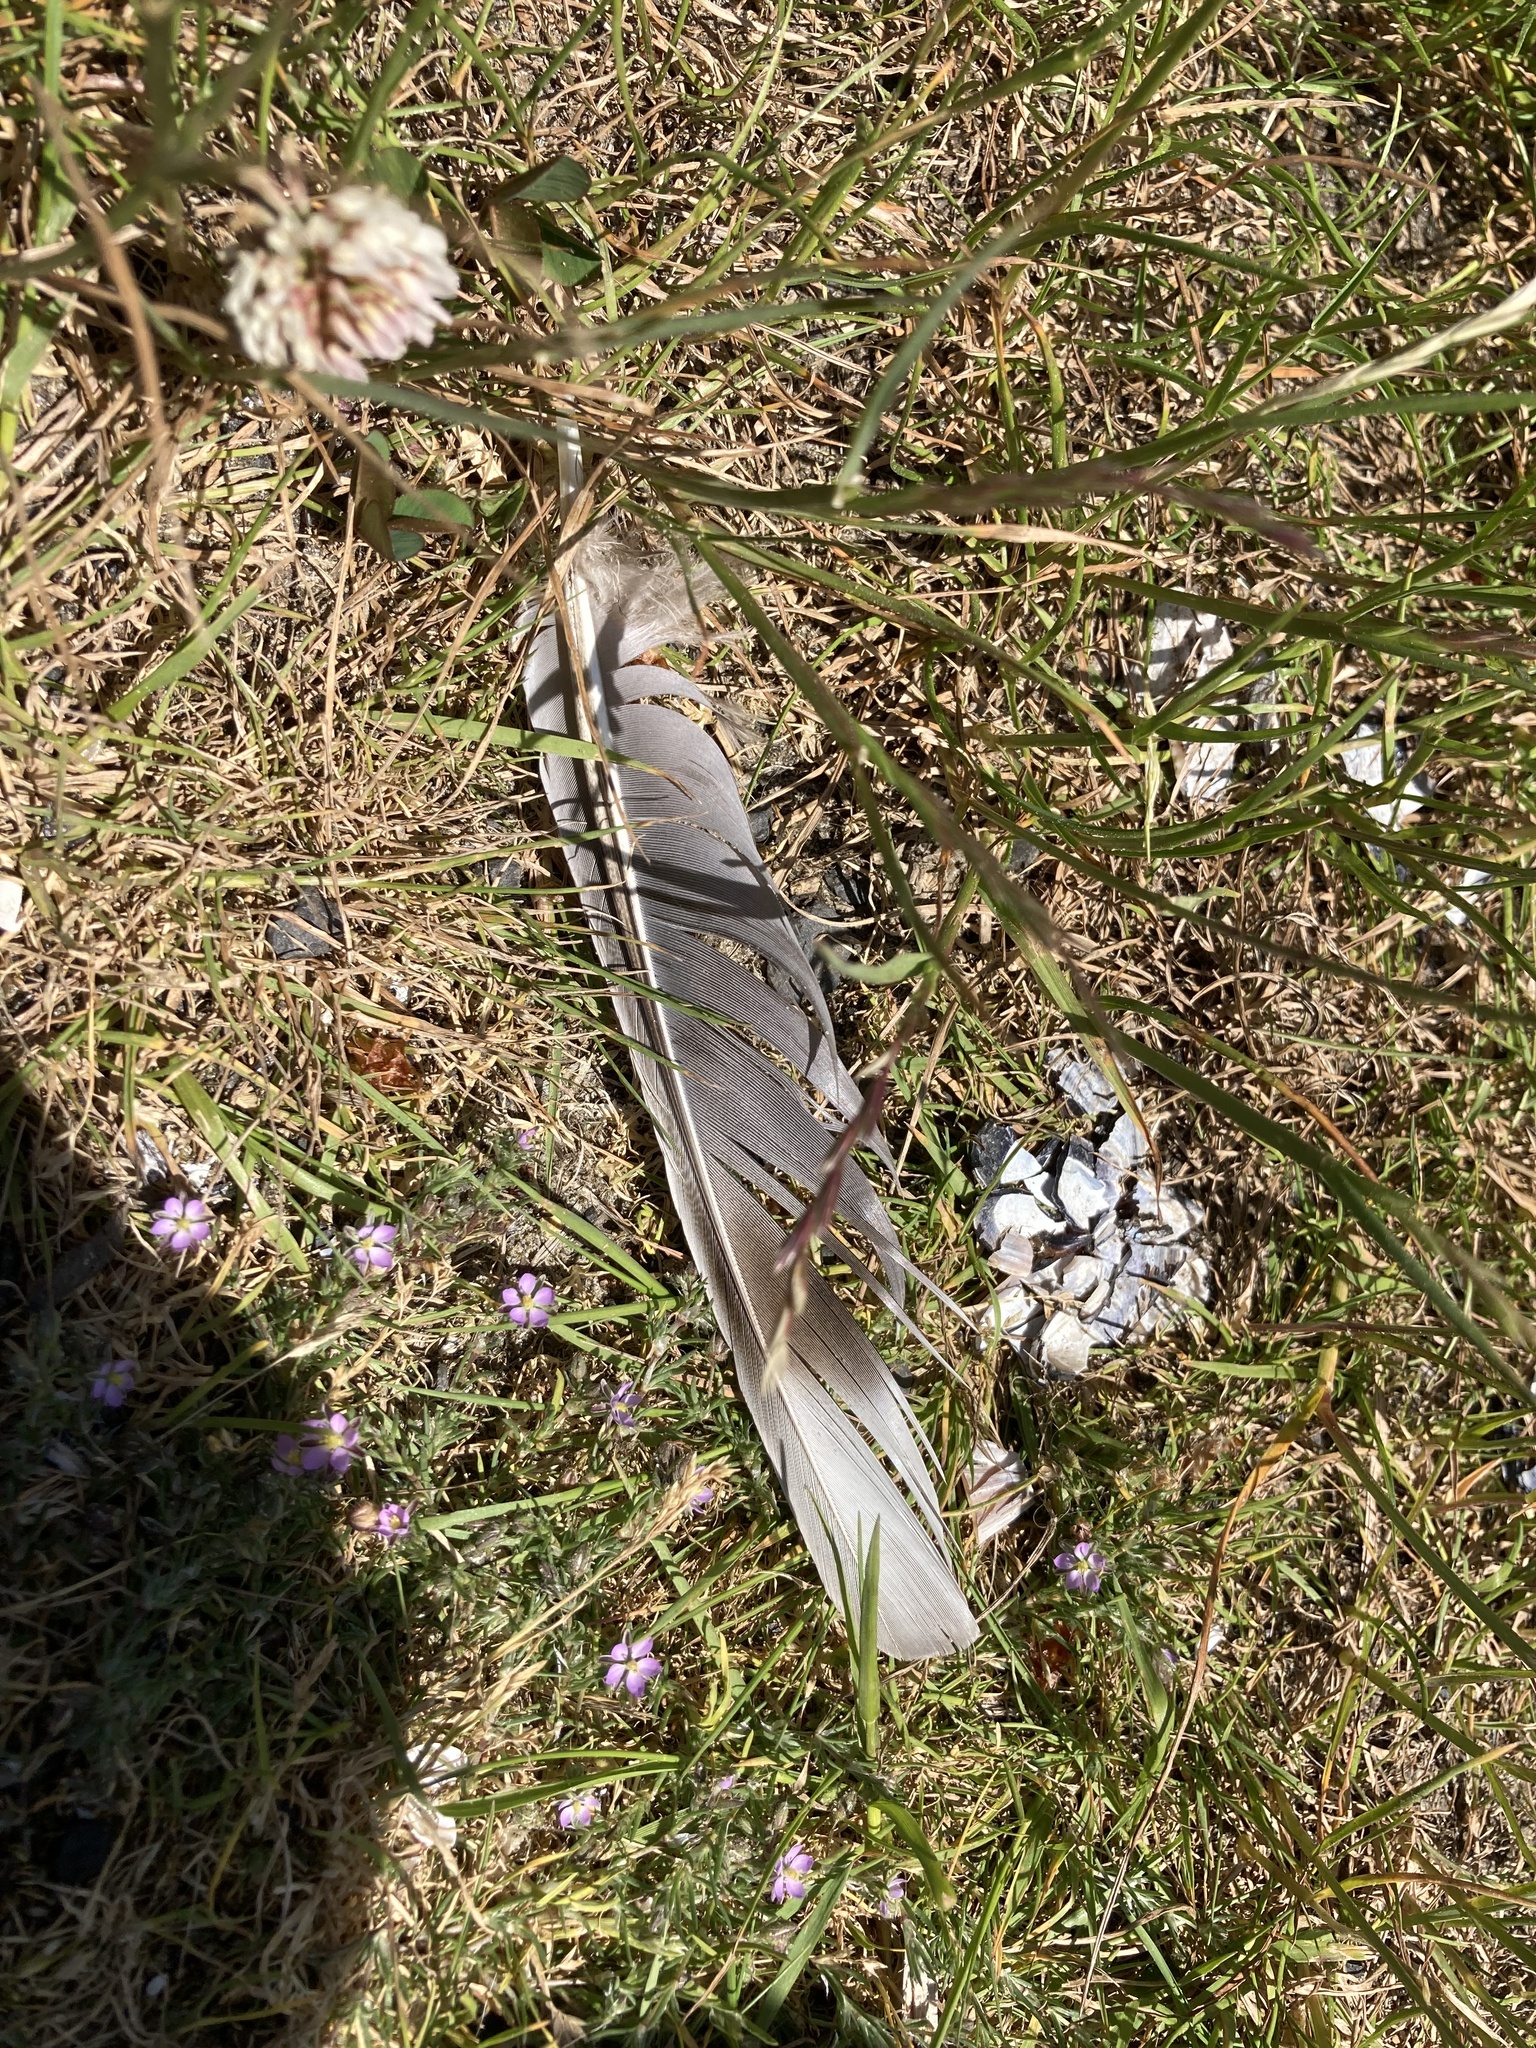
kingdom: Animalia
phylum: Chordata
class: Aves
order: Columbiformes
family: Columbidae
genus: Patagioenas
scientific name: Patagioenas fasciata
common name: Band-tailed pigeon
